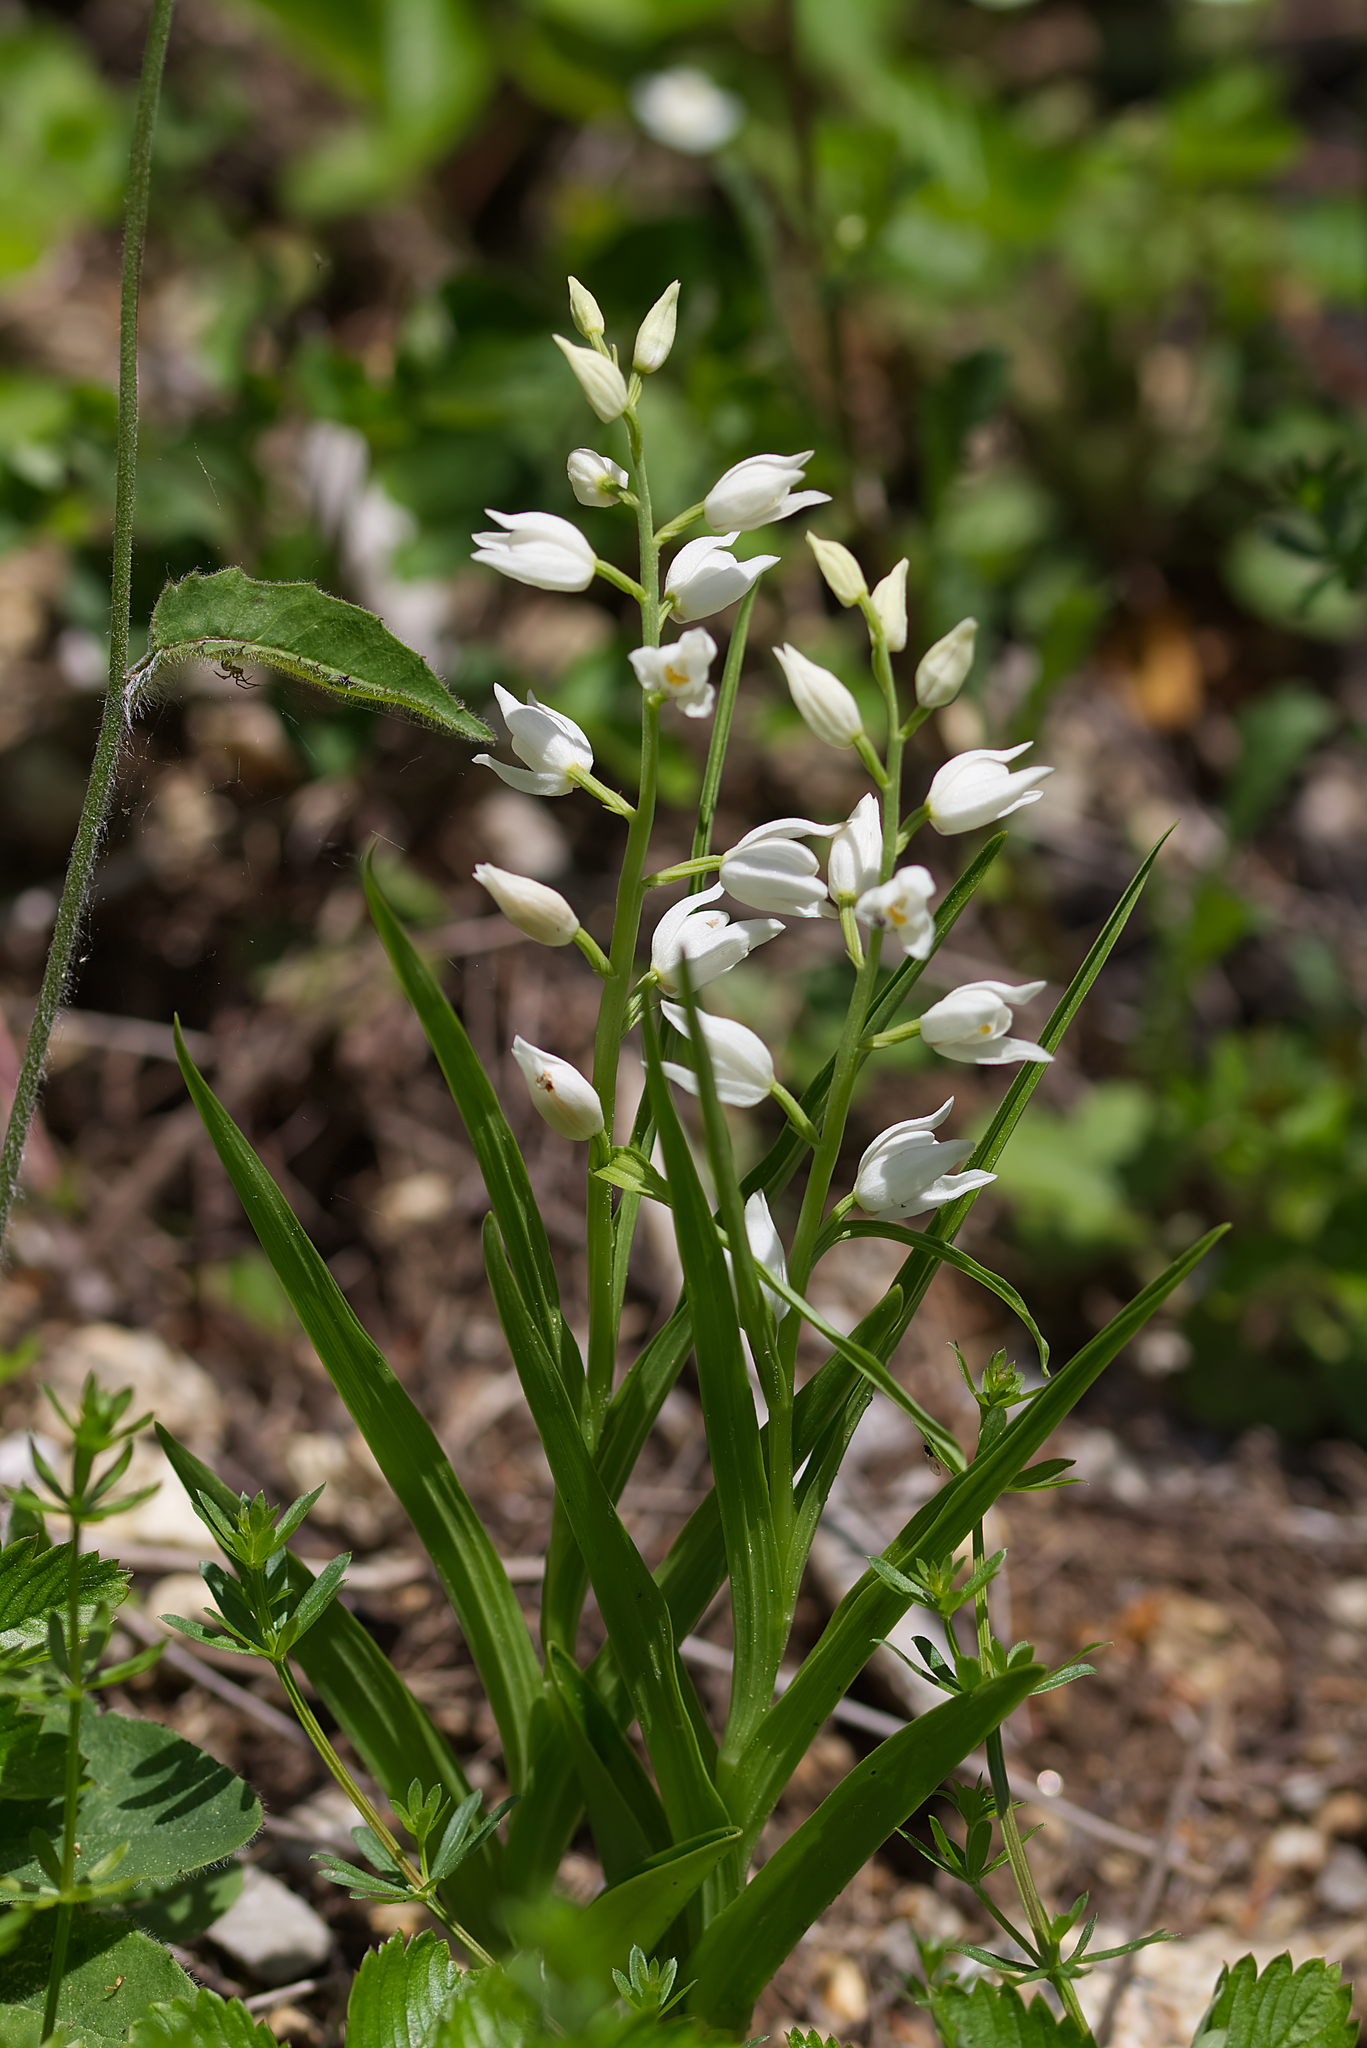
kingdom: Plantae
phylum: Tracheophyta
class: Liliopsida
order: Asparagales
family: Orchidaceae
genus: Cephalanthera
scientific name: Cephalanthera longifolia
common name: Narrow-leaved helleborine
